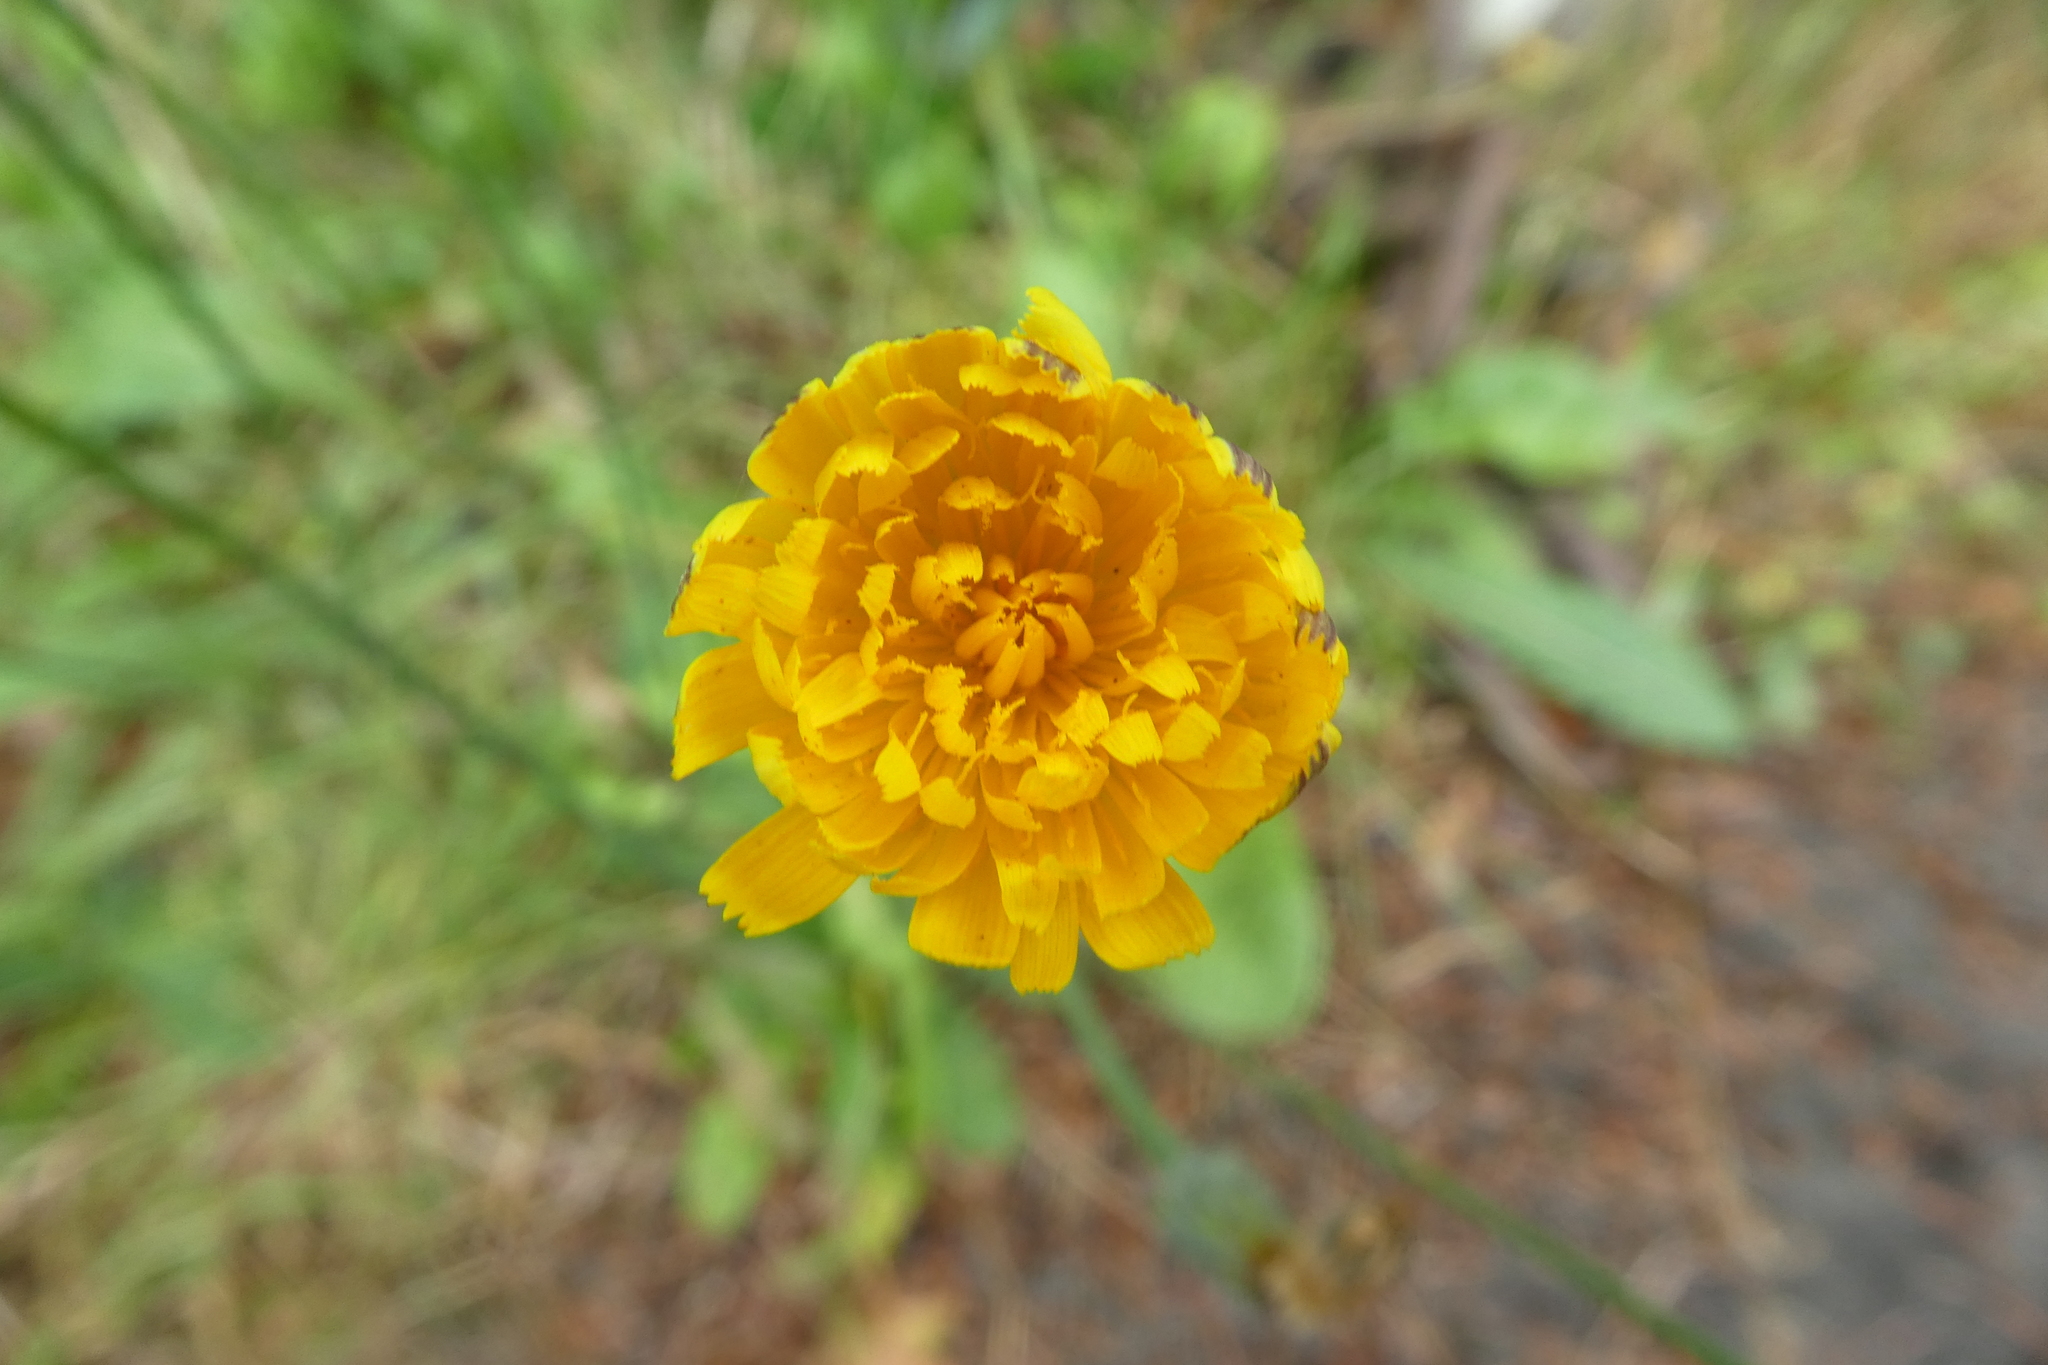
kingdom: Plantae
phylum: Tracheophyta
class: Magnoliopsida
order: Asterales
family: Asteraceae
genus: Hypochaeris
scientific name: Hypochaeris radicata
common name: Flatweed
